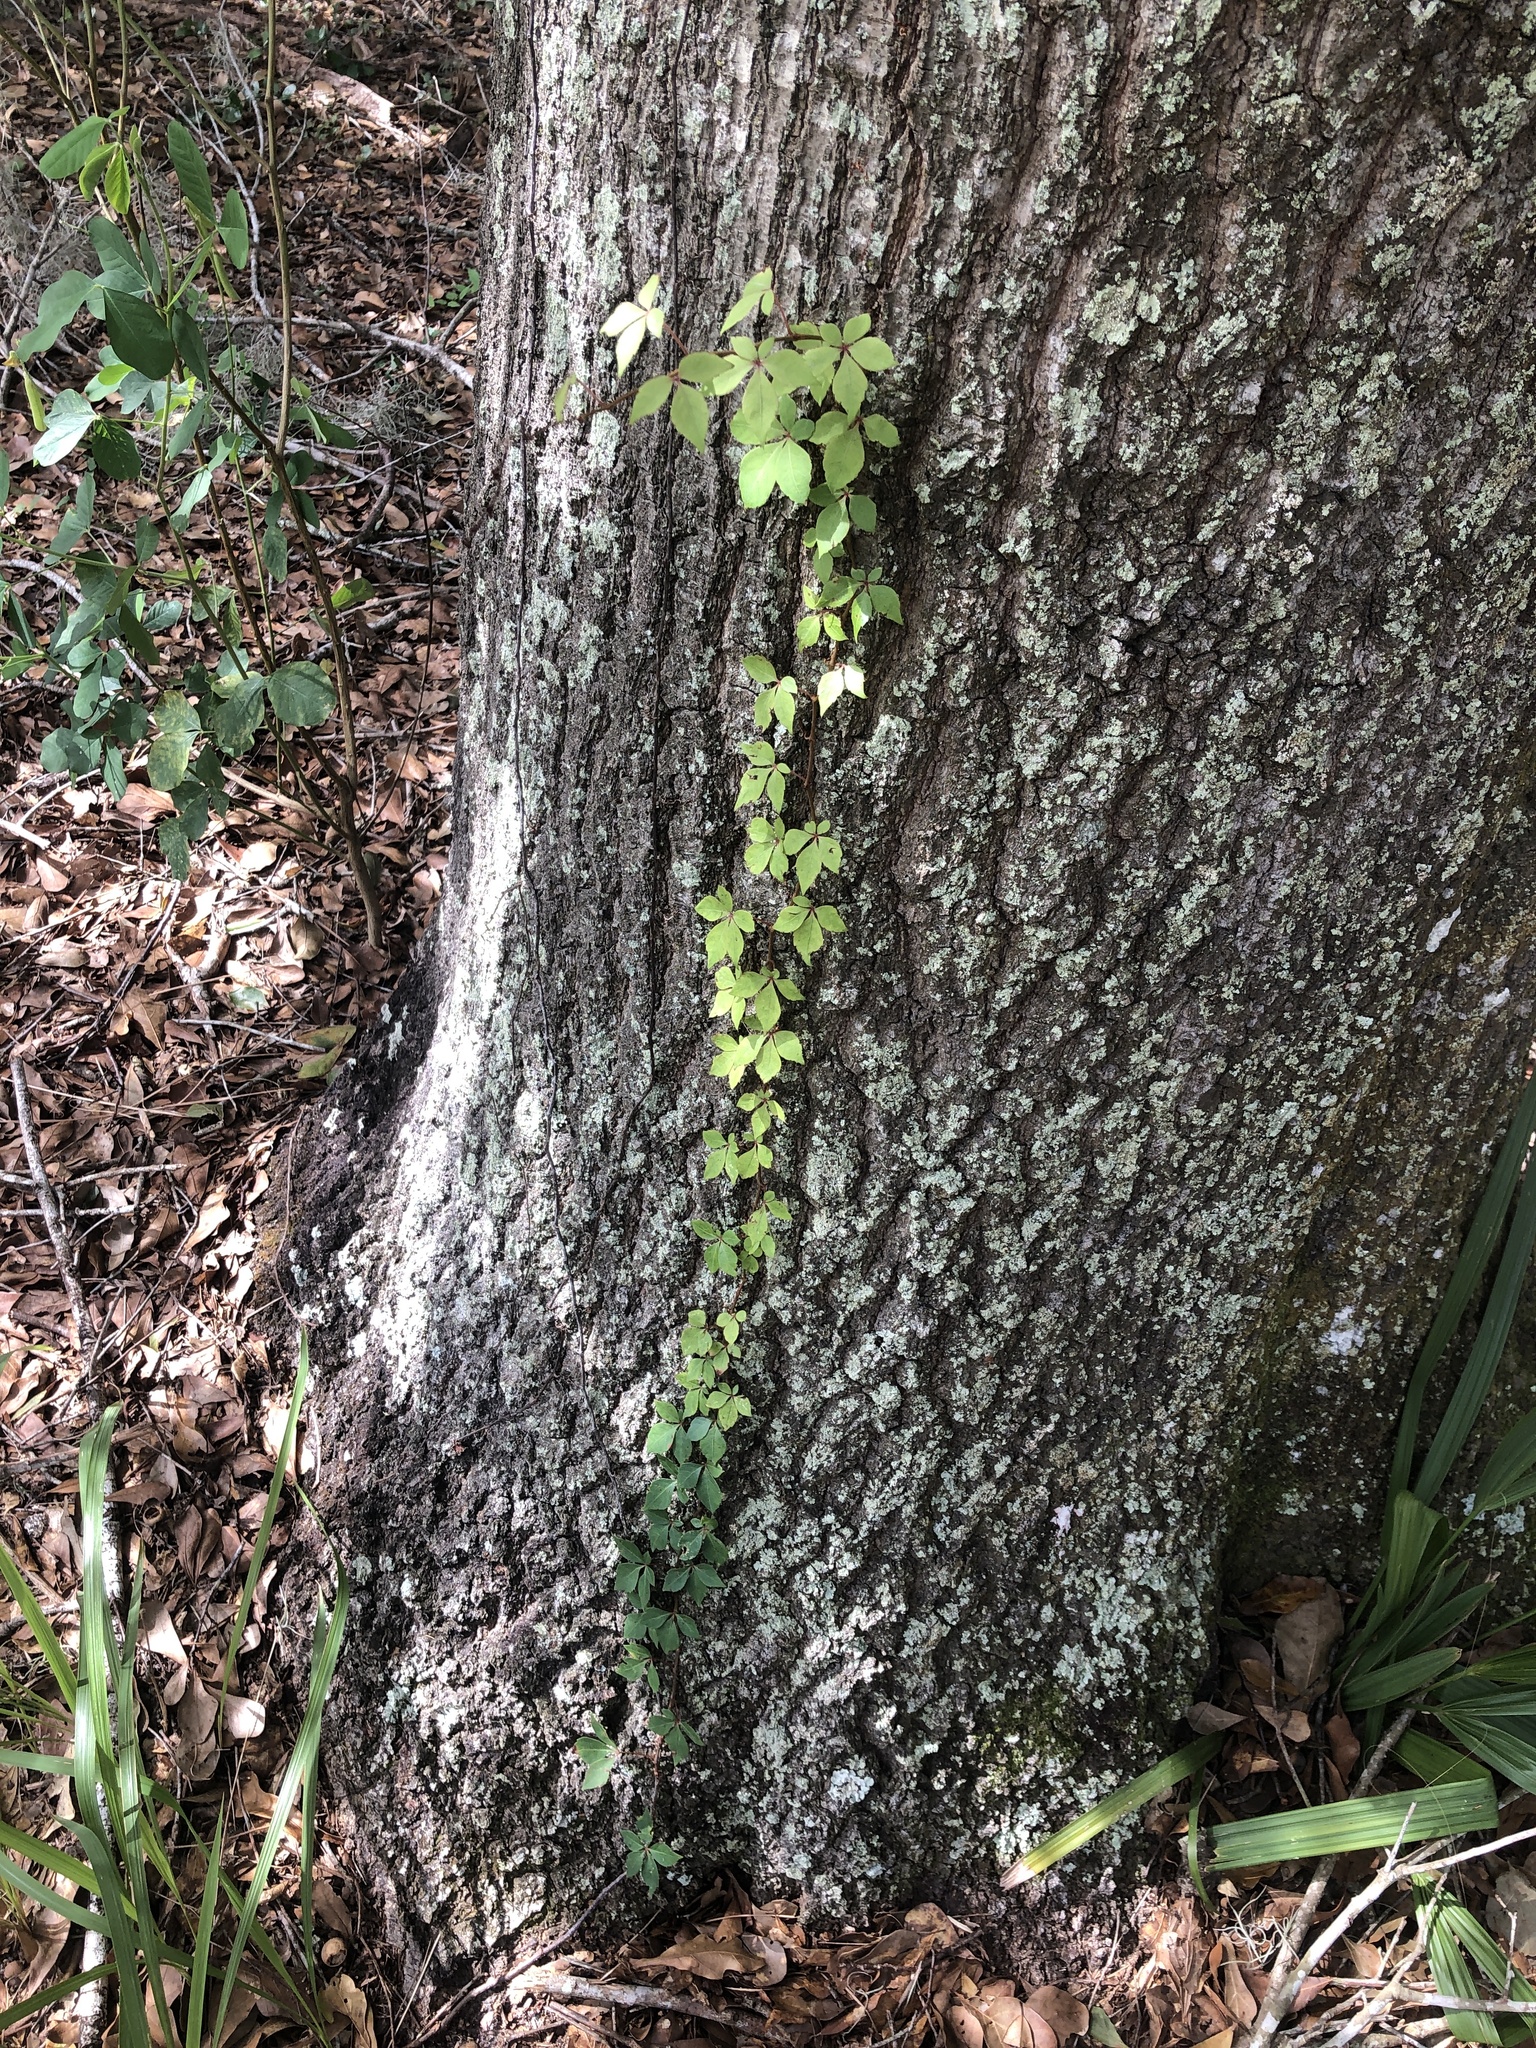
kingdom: Plantae
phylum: Tracheophyta
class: Magnoliopsida
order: Vitales
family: Vitaceae
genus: Parthenocissus
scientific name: Parthenocissus quinquefolia
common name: Virginia-creeper
